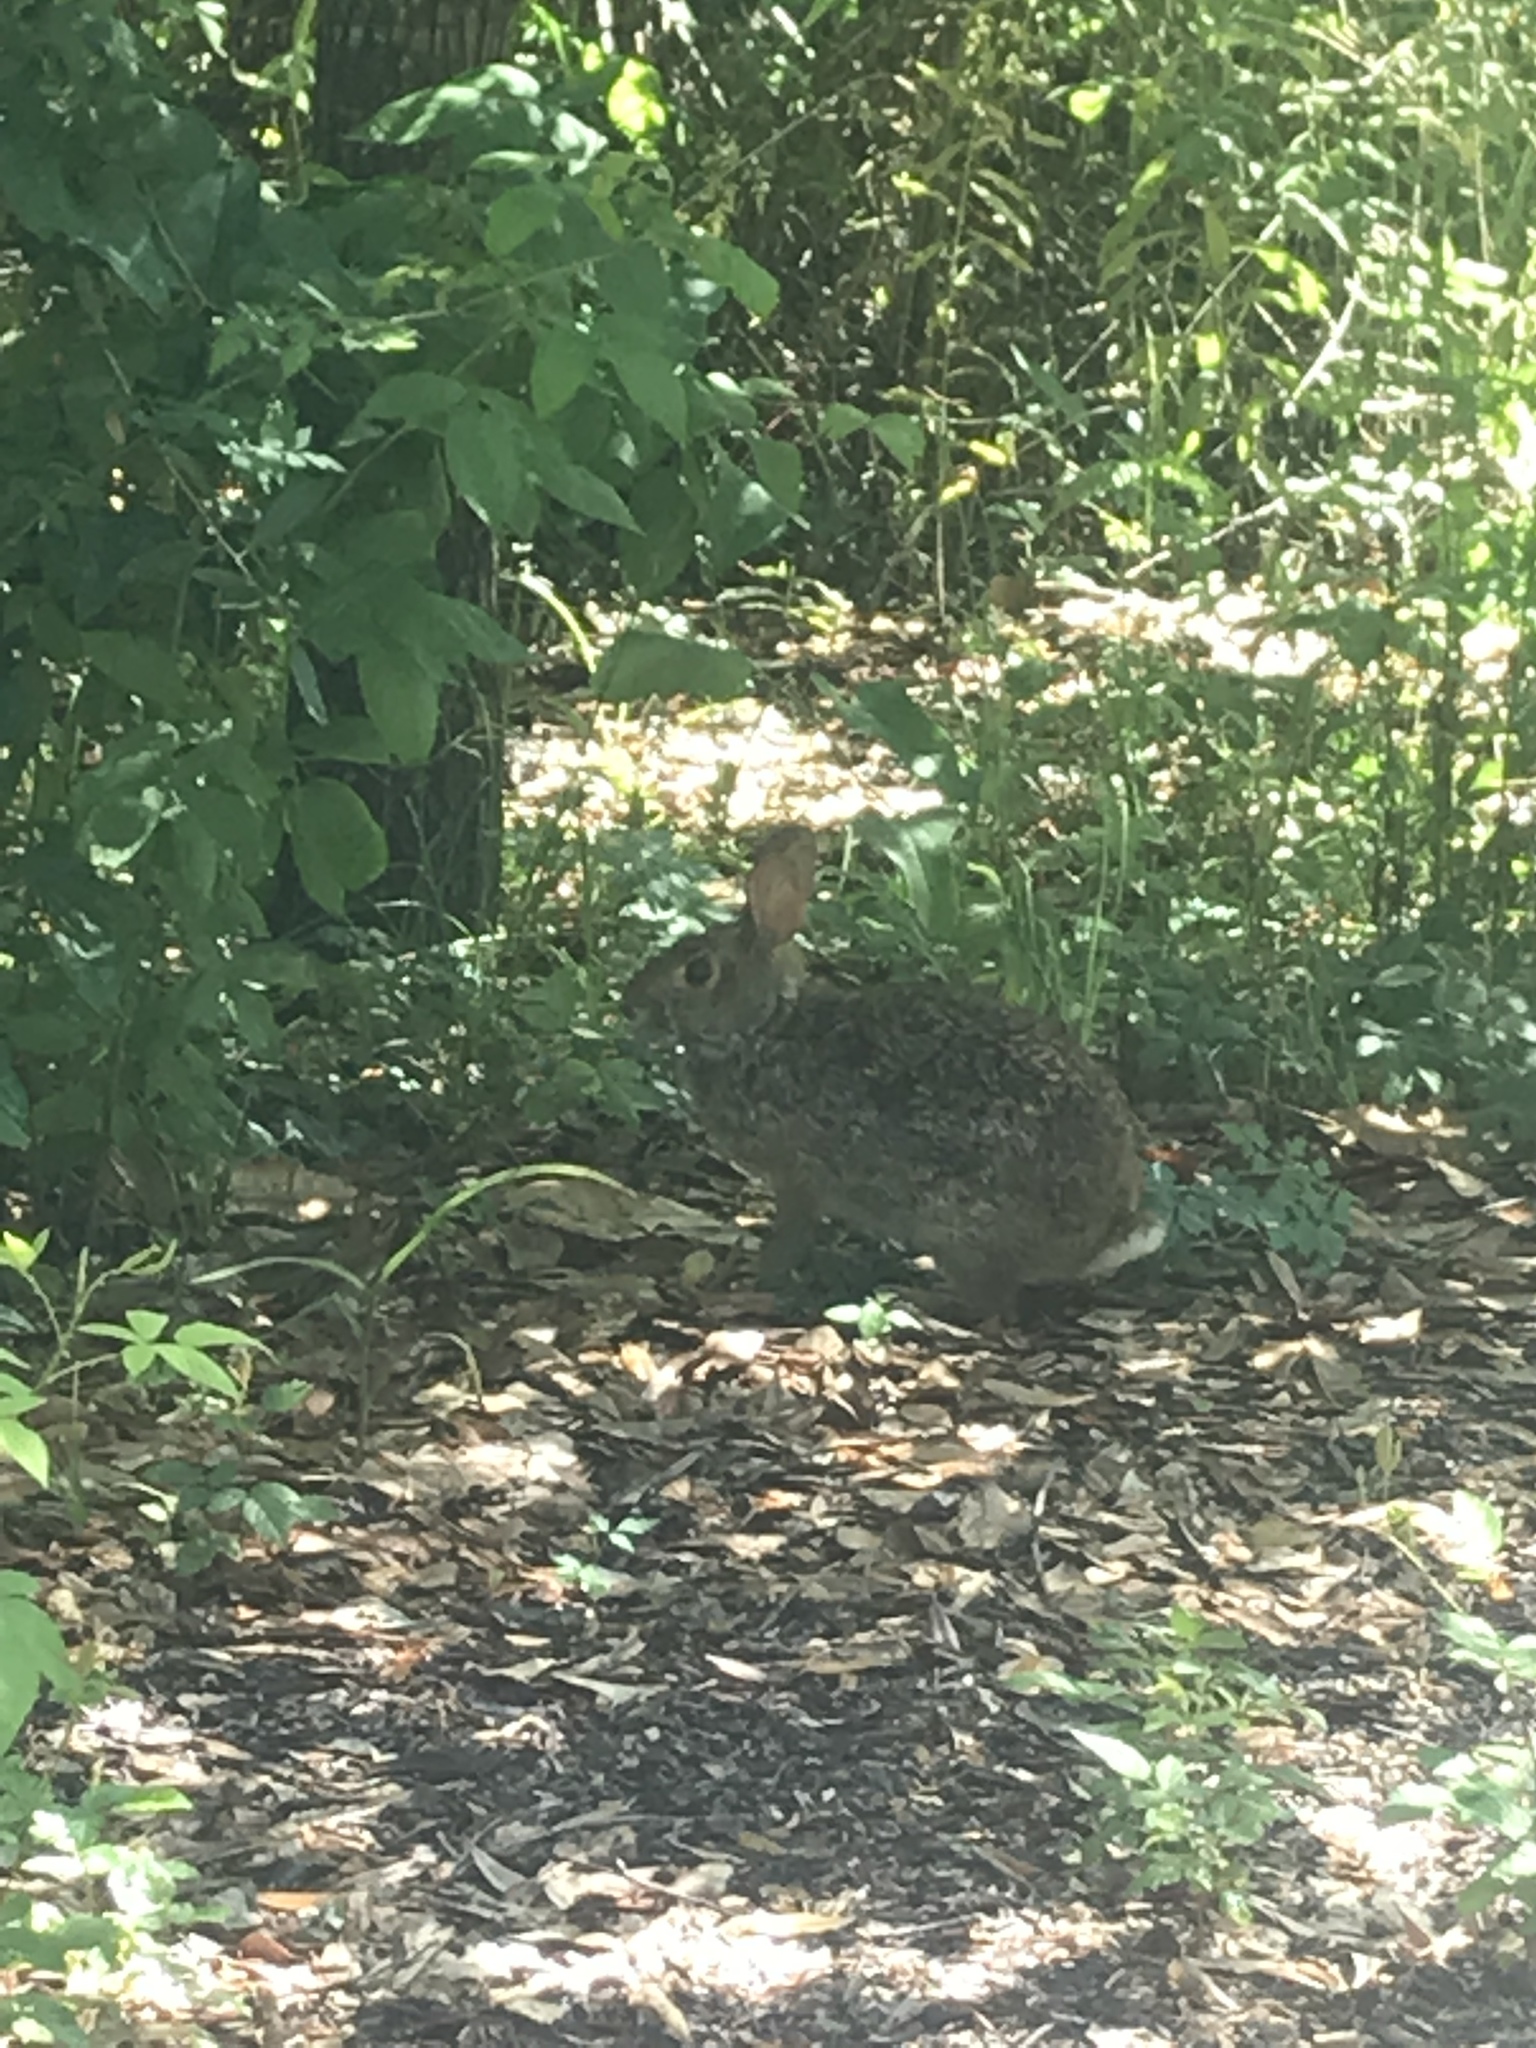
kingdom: Animalia
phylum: Chordata
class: Mammalia
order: Lagomorpha
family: Leporidae
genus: Sylvilagus
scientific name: Sylvilagus aquaticus
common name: Swamp rabbit
